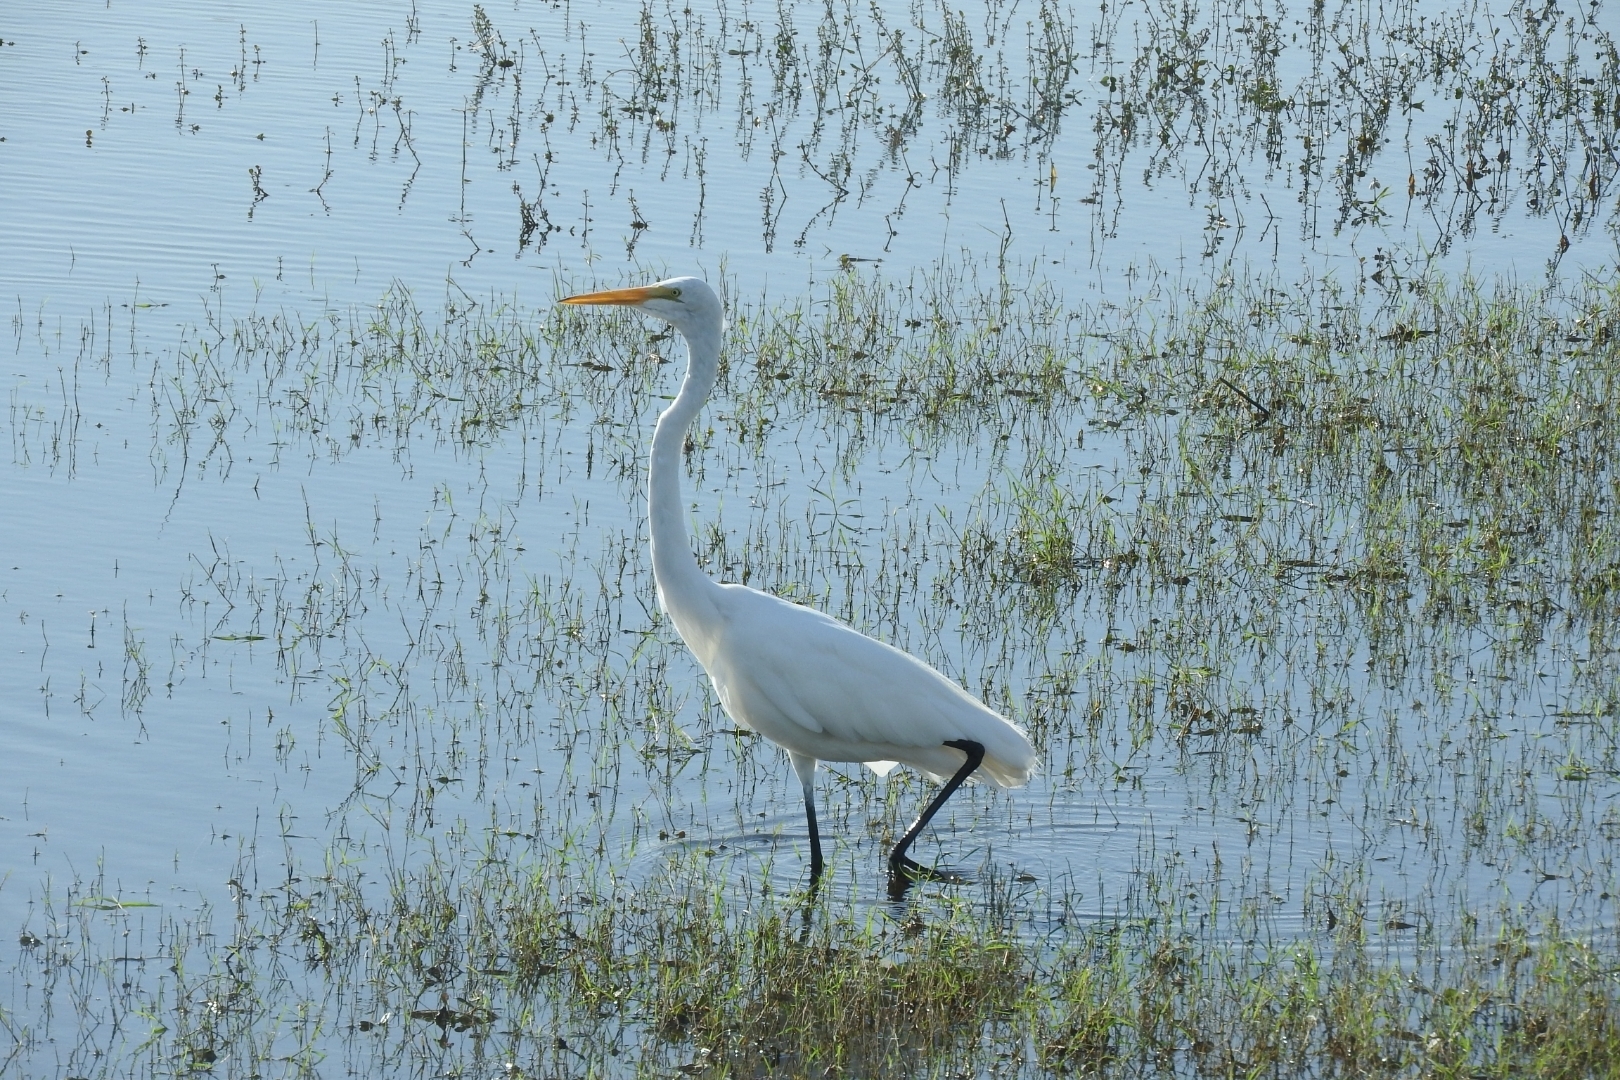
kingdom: Animalia
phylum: Chordata
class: Aves
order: Pelecaniformes
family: Ardeidae
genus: Ardea
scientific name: Ardea alba
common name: Great egret
